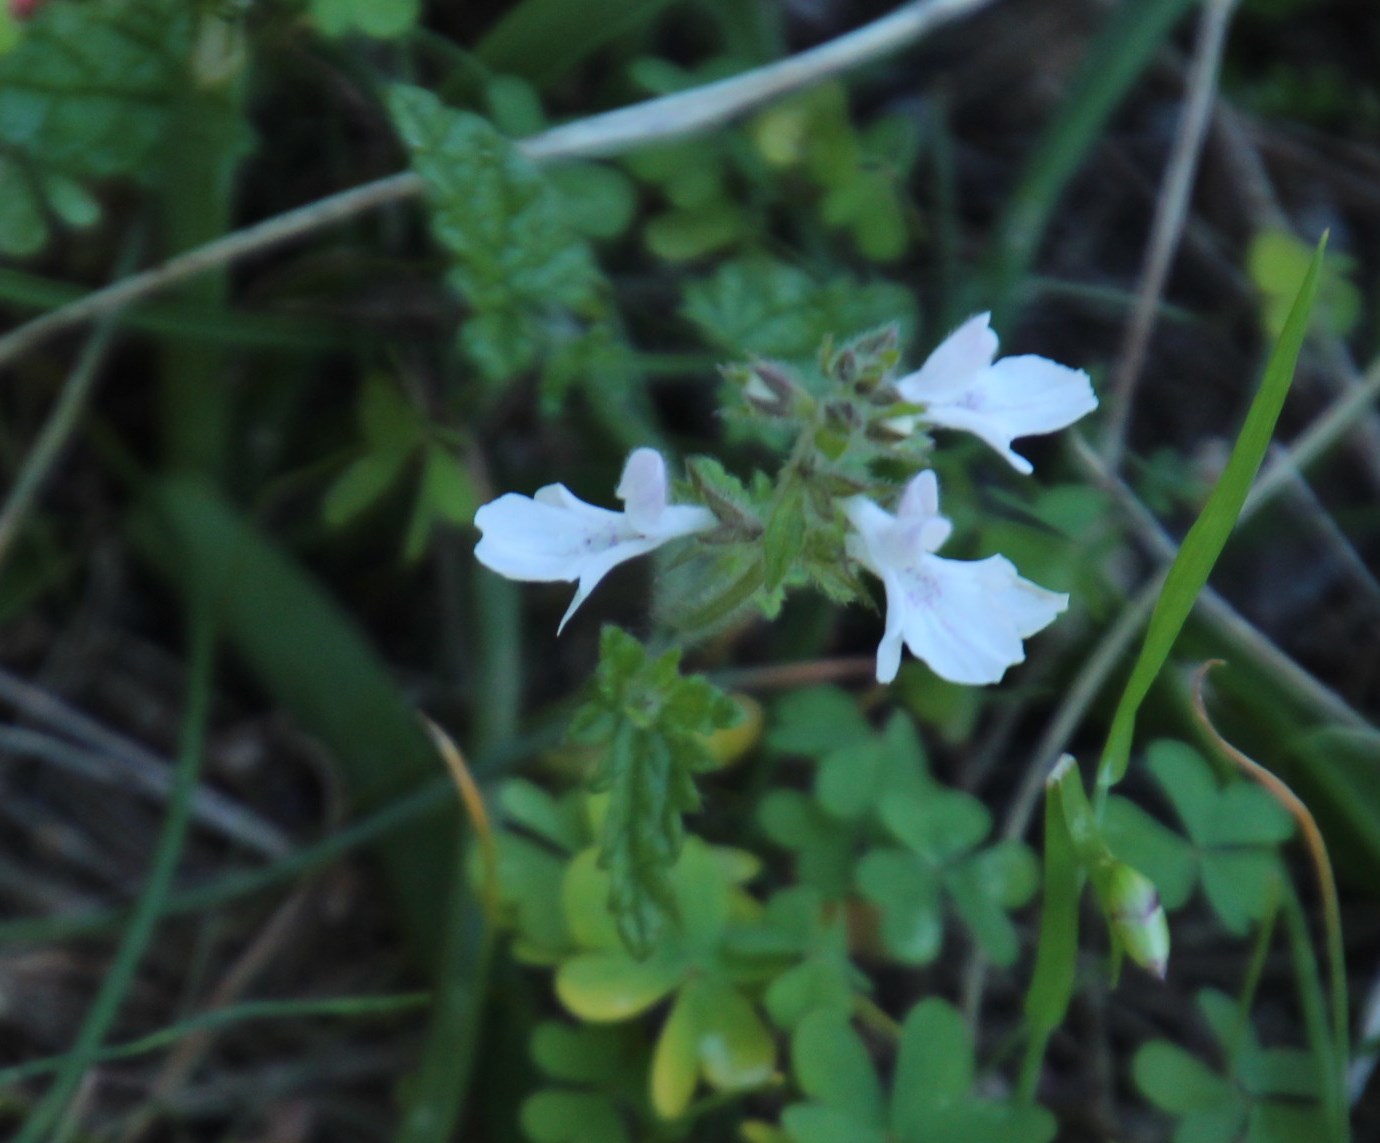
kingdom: Plantae
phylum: Tracheophyta
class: Magnoliopsida
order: Lamiales
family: Lamiaceae
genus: Stachys
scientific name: Stachys aethiopica
